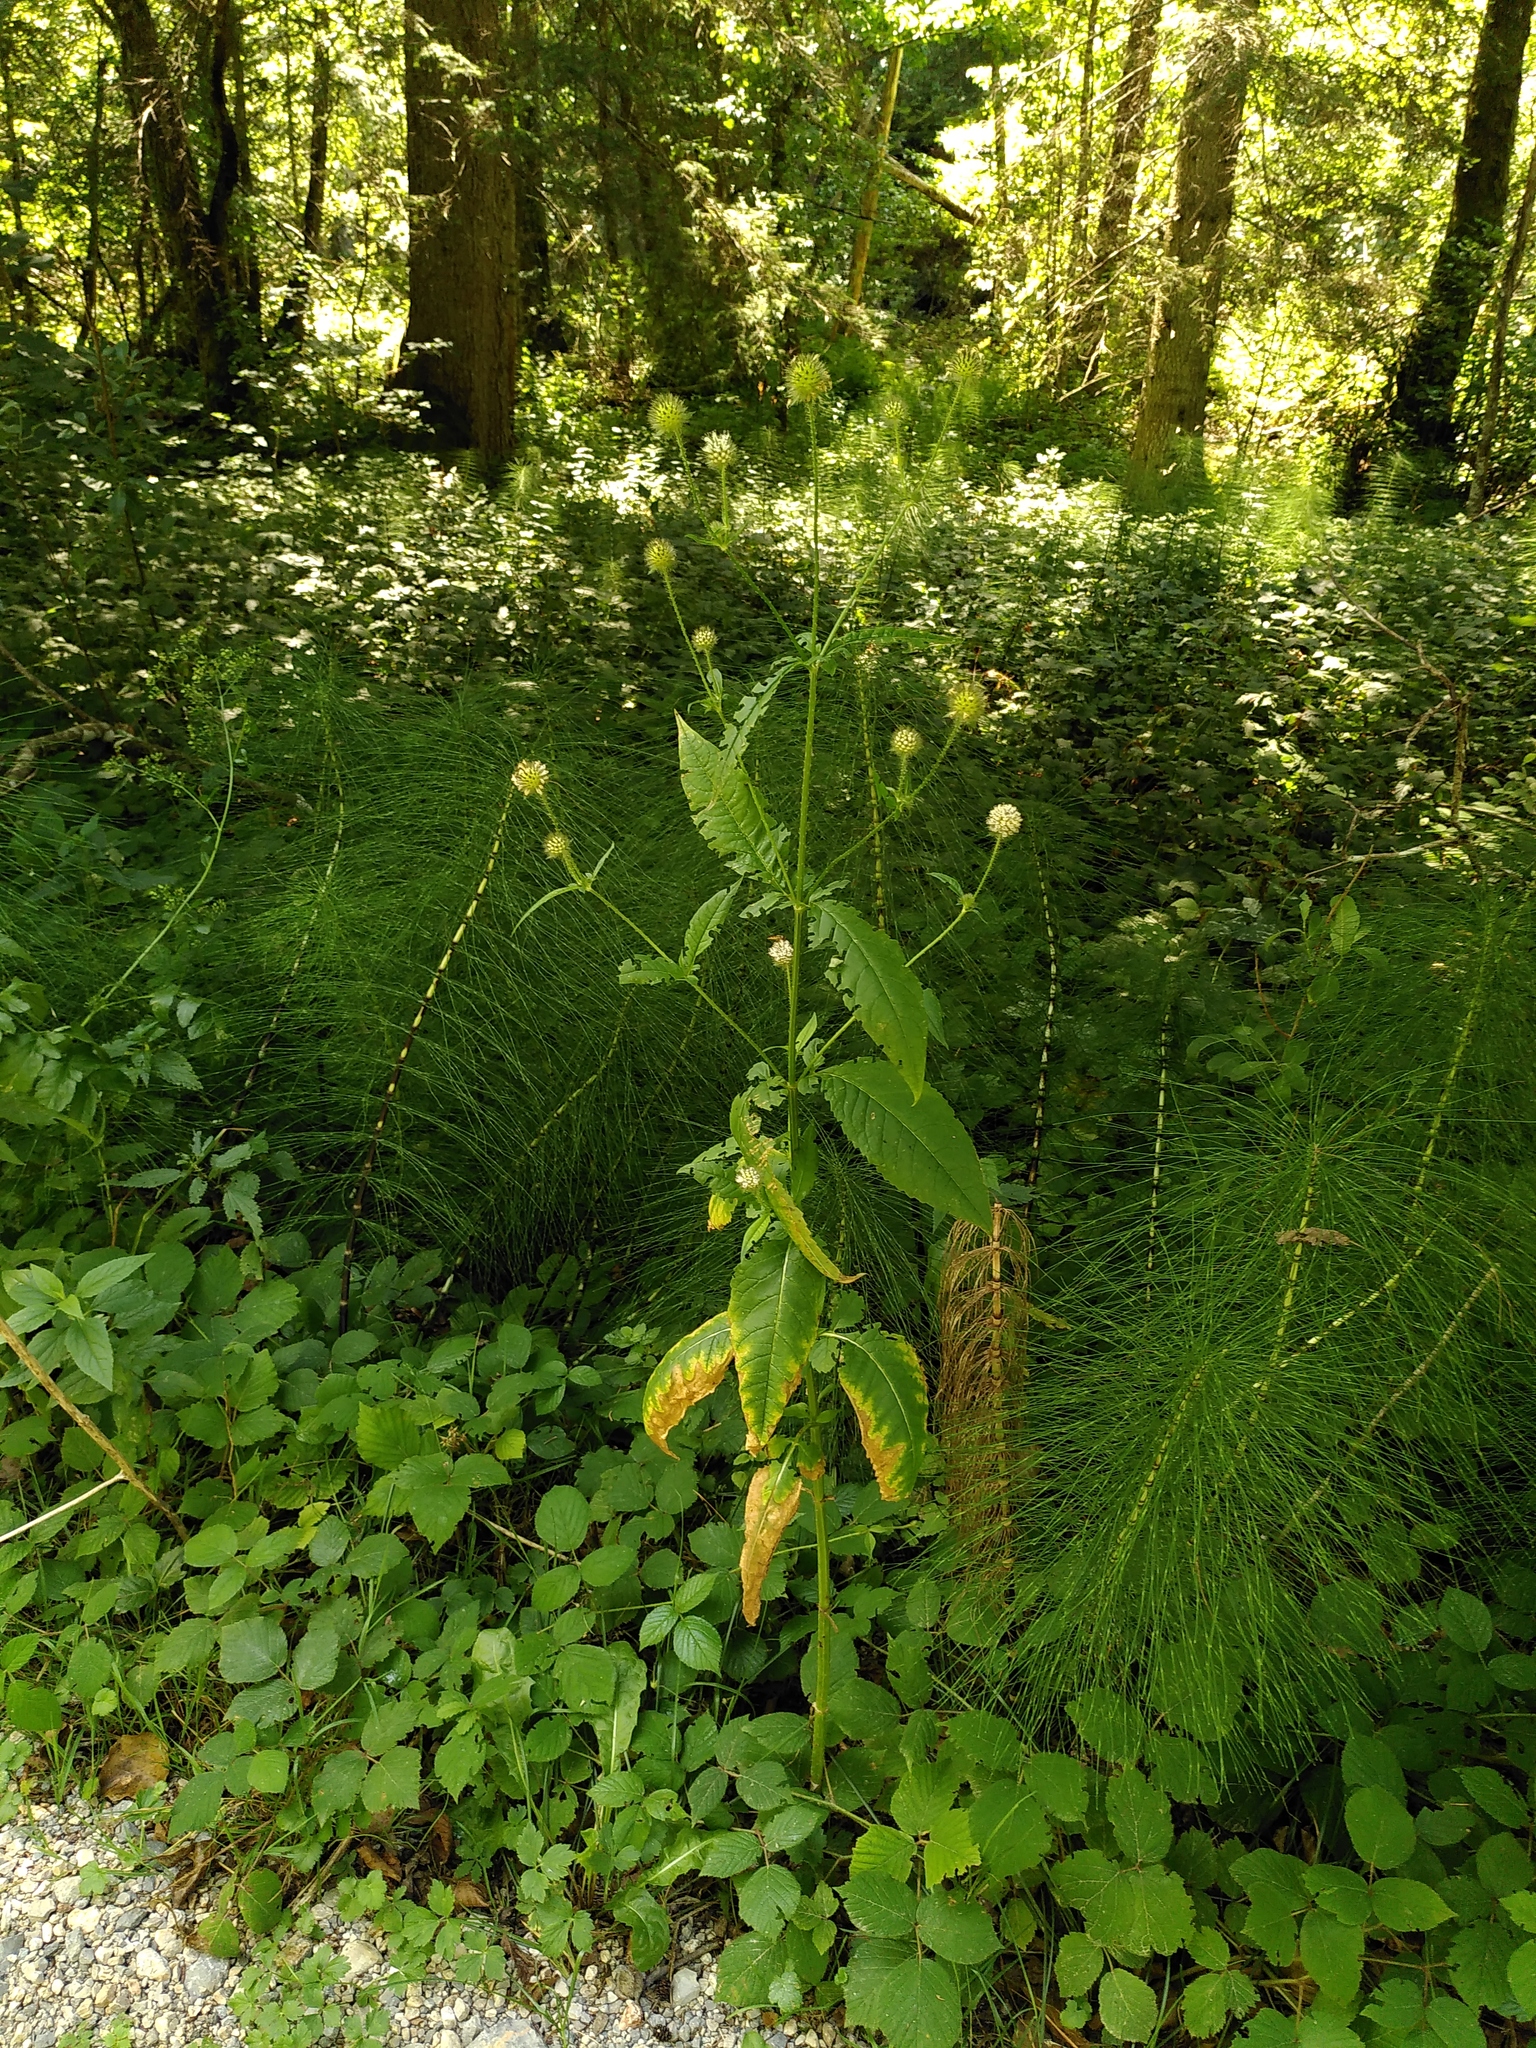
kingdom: Plantae
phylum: Tracheophyta
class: Magnoliopsida
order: Dipsacales
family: Caprifoliaceae
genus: Dipsacus
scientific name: Dipsacus pilosus
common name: Small teasel
